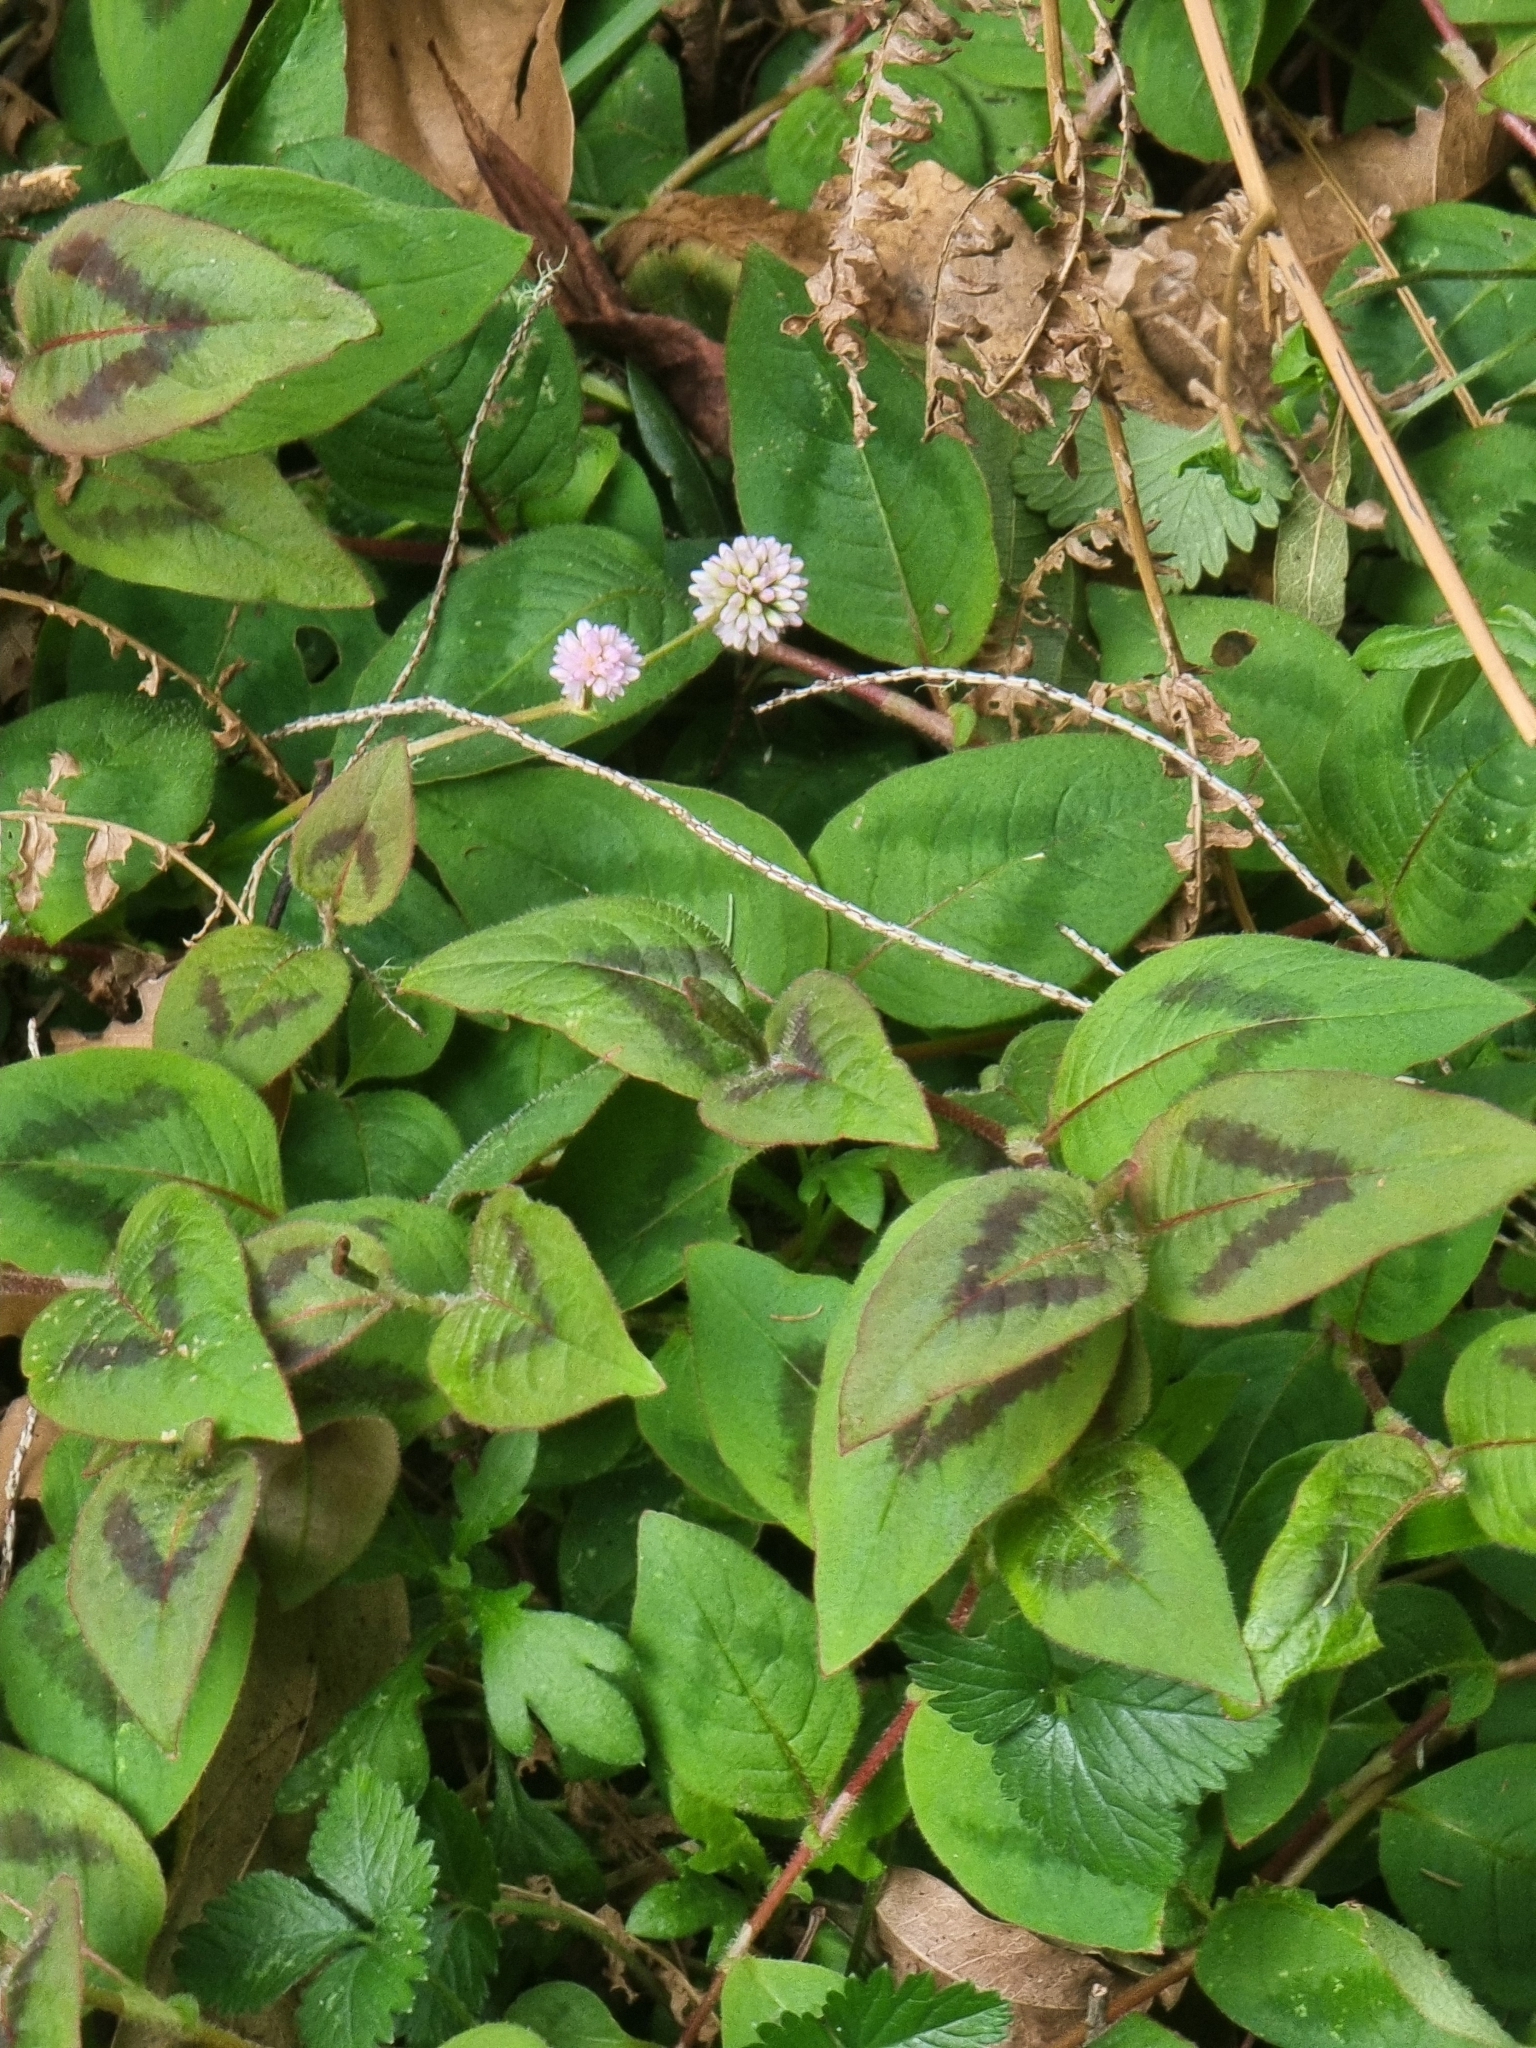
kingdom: Plantae
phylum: Tracheophyta
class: Magnoliopsida
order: Caryophyllales
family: Polygonaceae
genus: Persicaria
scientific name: Persicaria capitata
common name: Pinkhead smartweed
